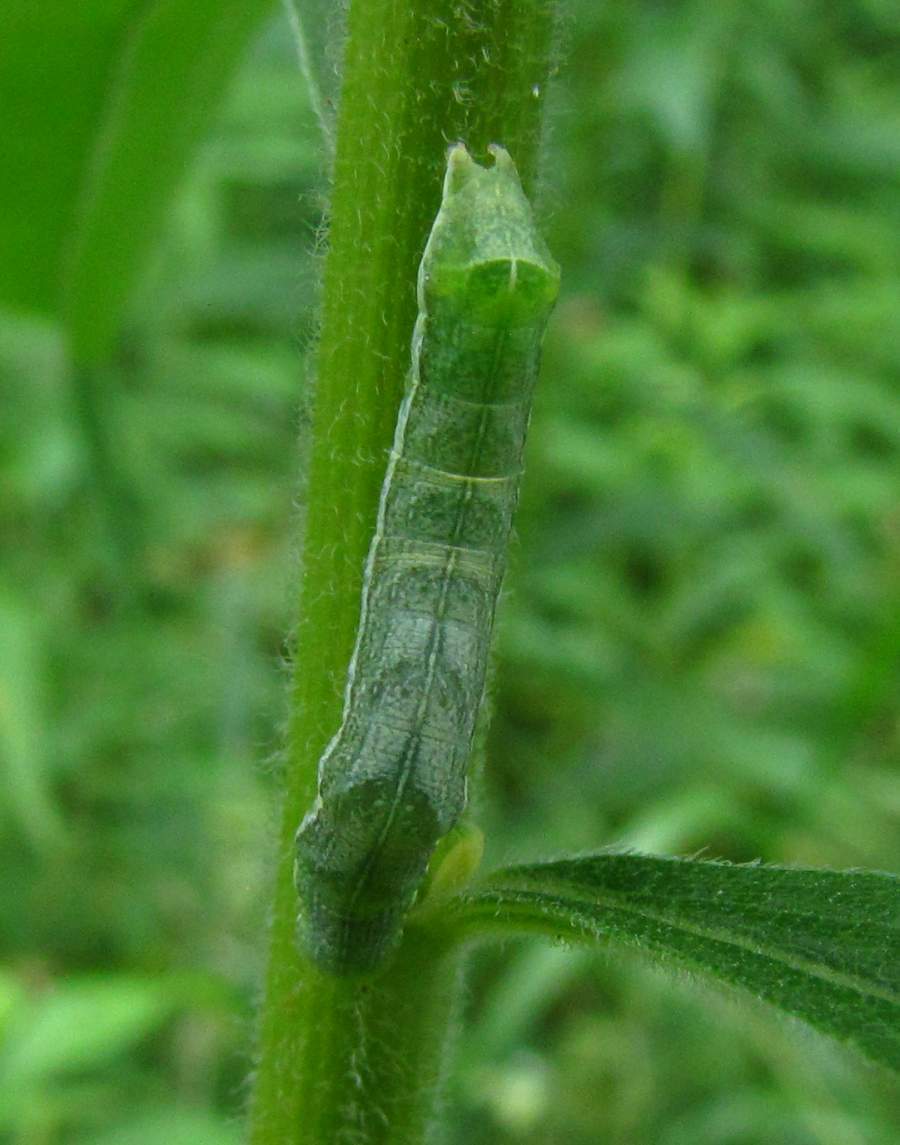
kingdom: Animalia
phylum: Arthropoda
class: Insecta
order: Lepidoptera
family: Noctuidae
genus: Melanchra
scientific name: Melanchra adjuncta
